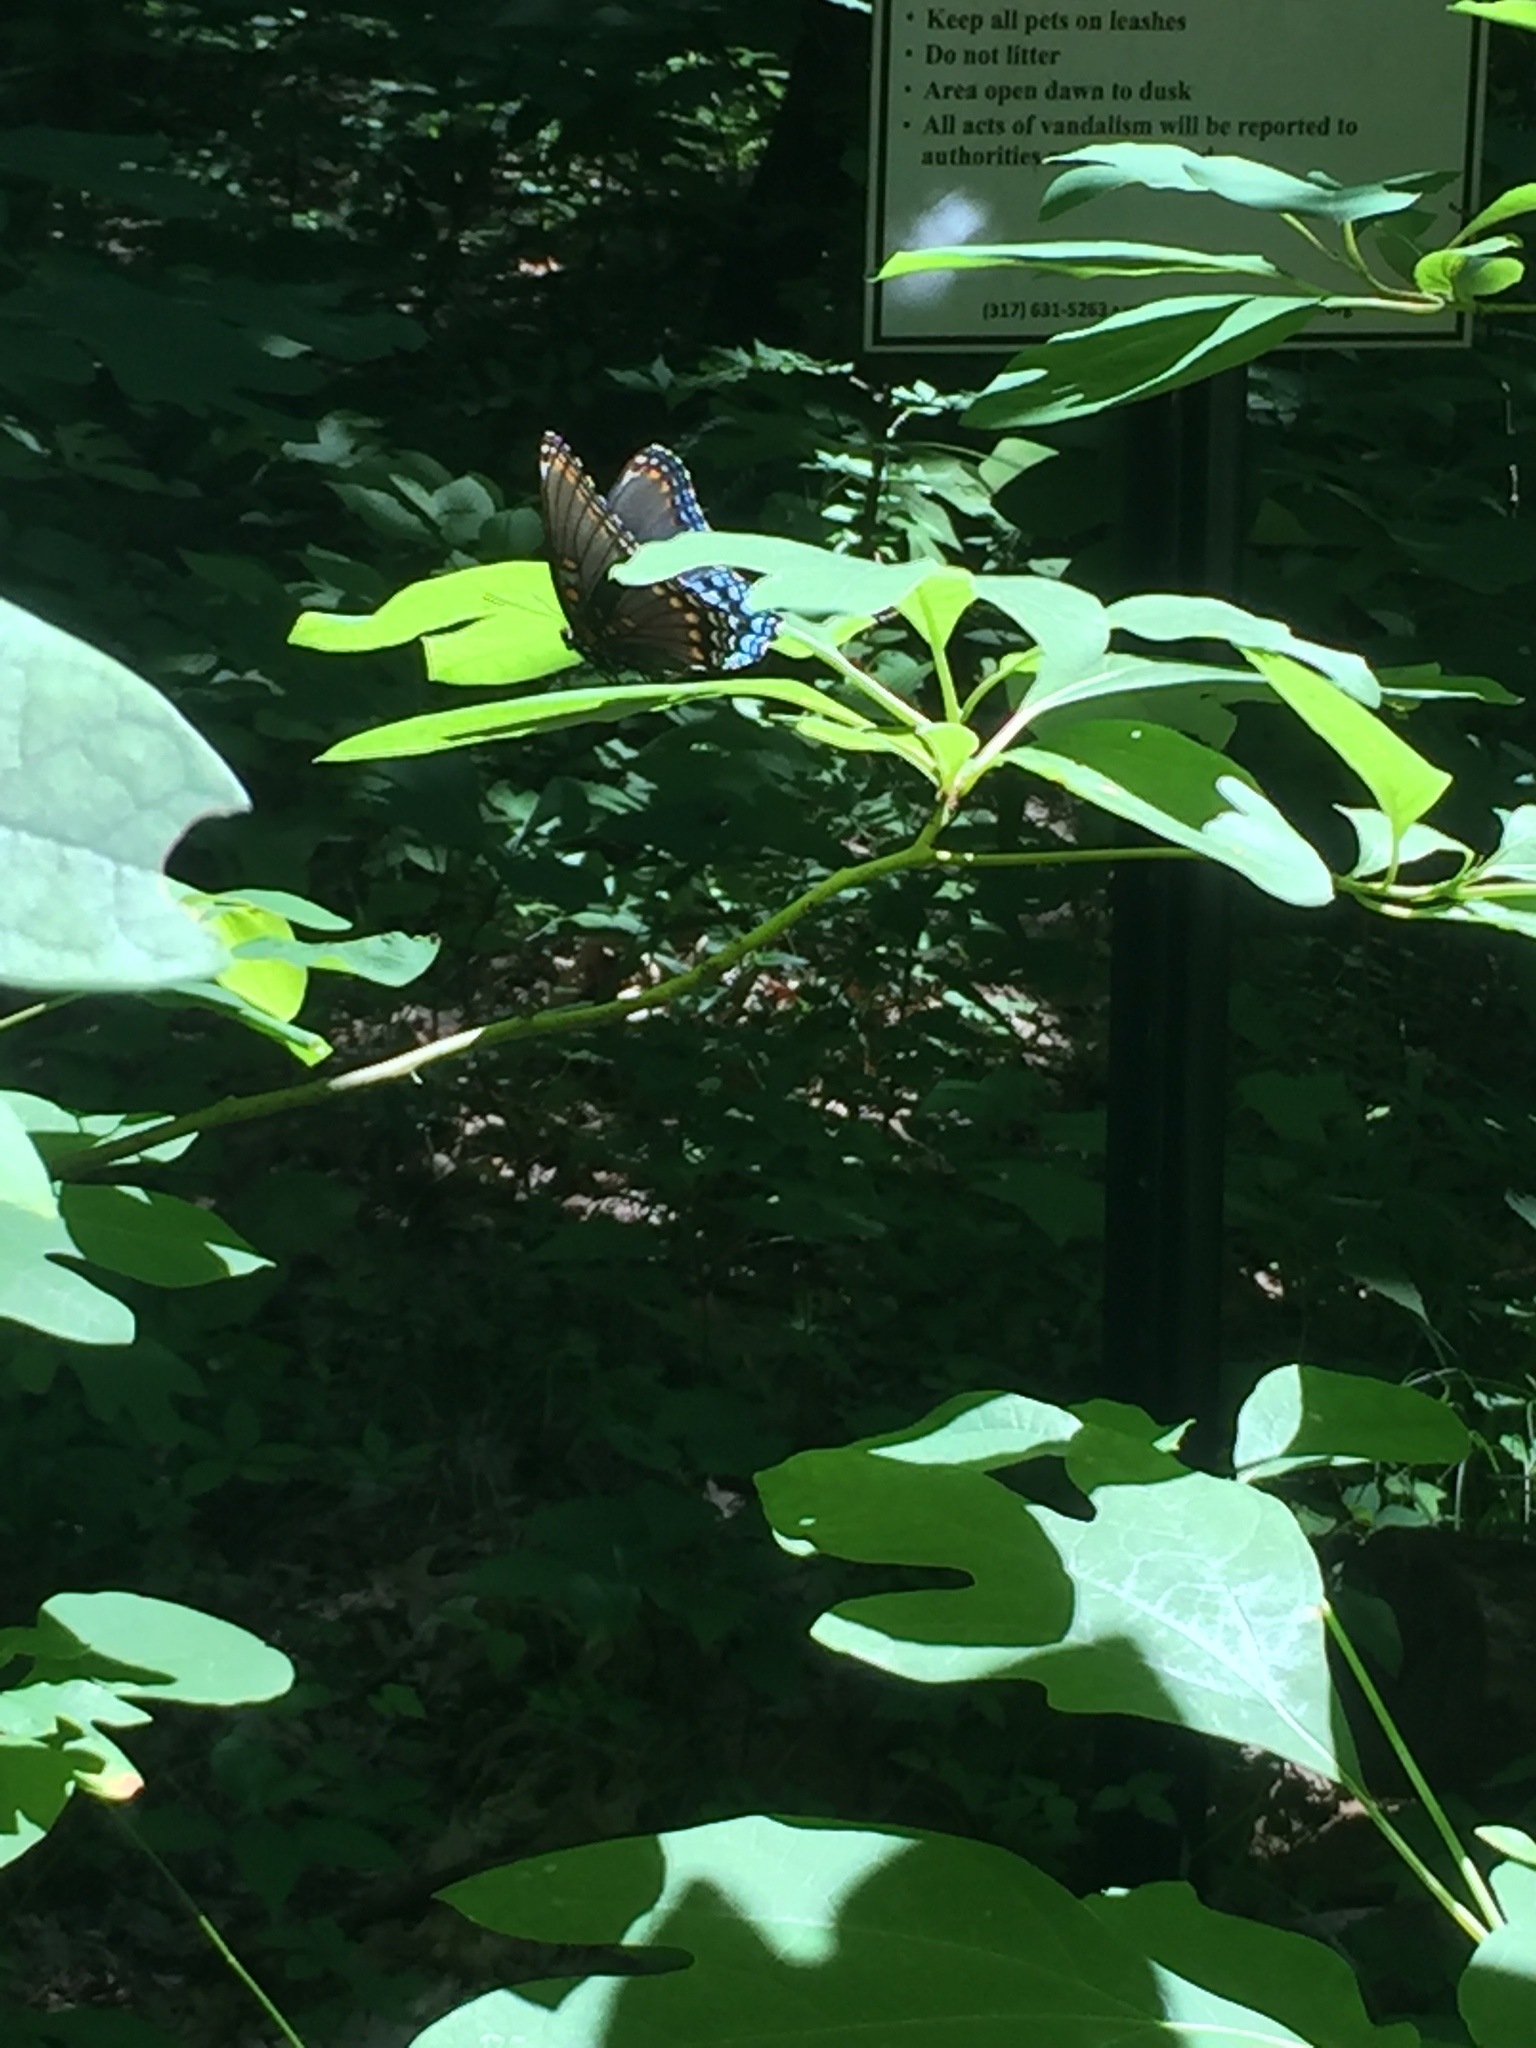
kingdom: Animalia
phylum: Arthropoda
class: Insecta
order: Lepidoptera
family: Nymphalidae
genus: Limenitis
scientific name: Limenitis astyanax
